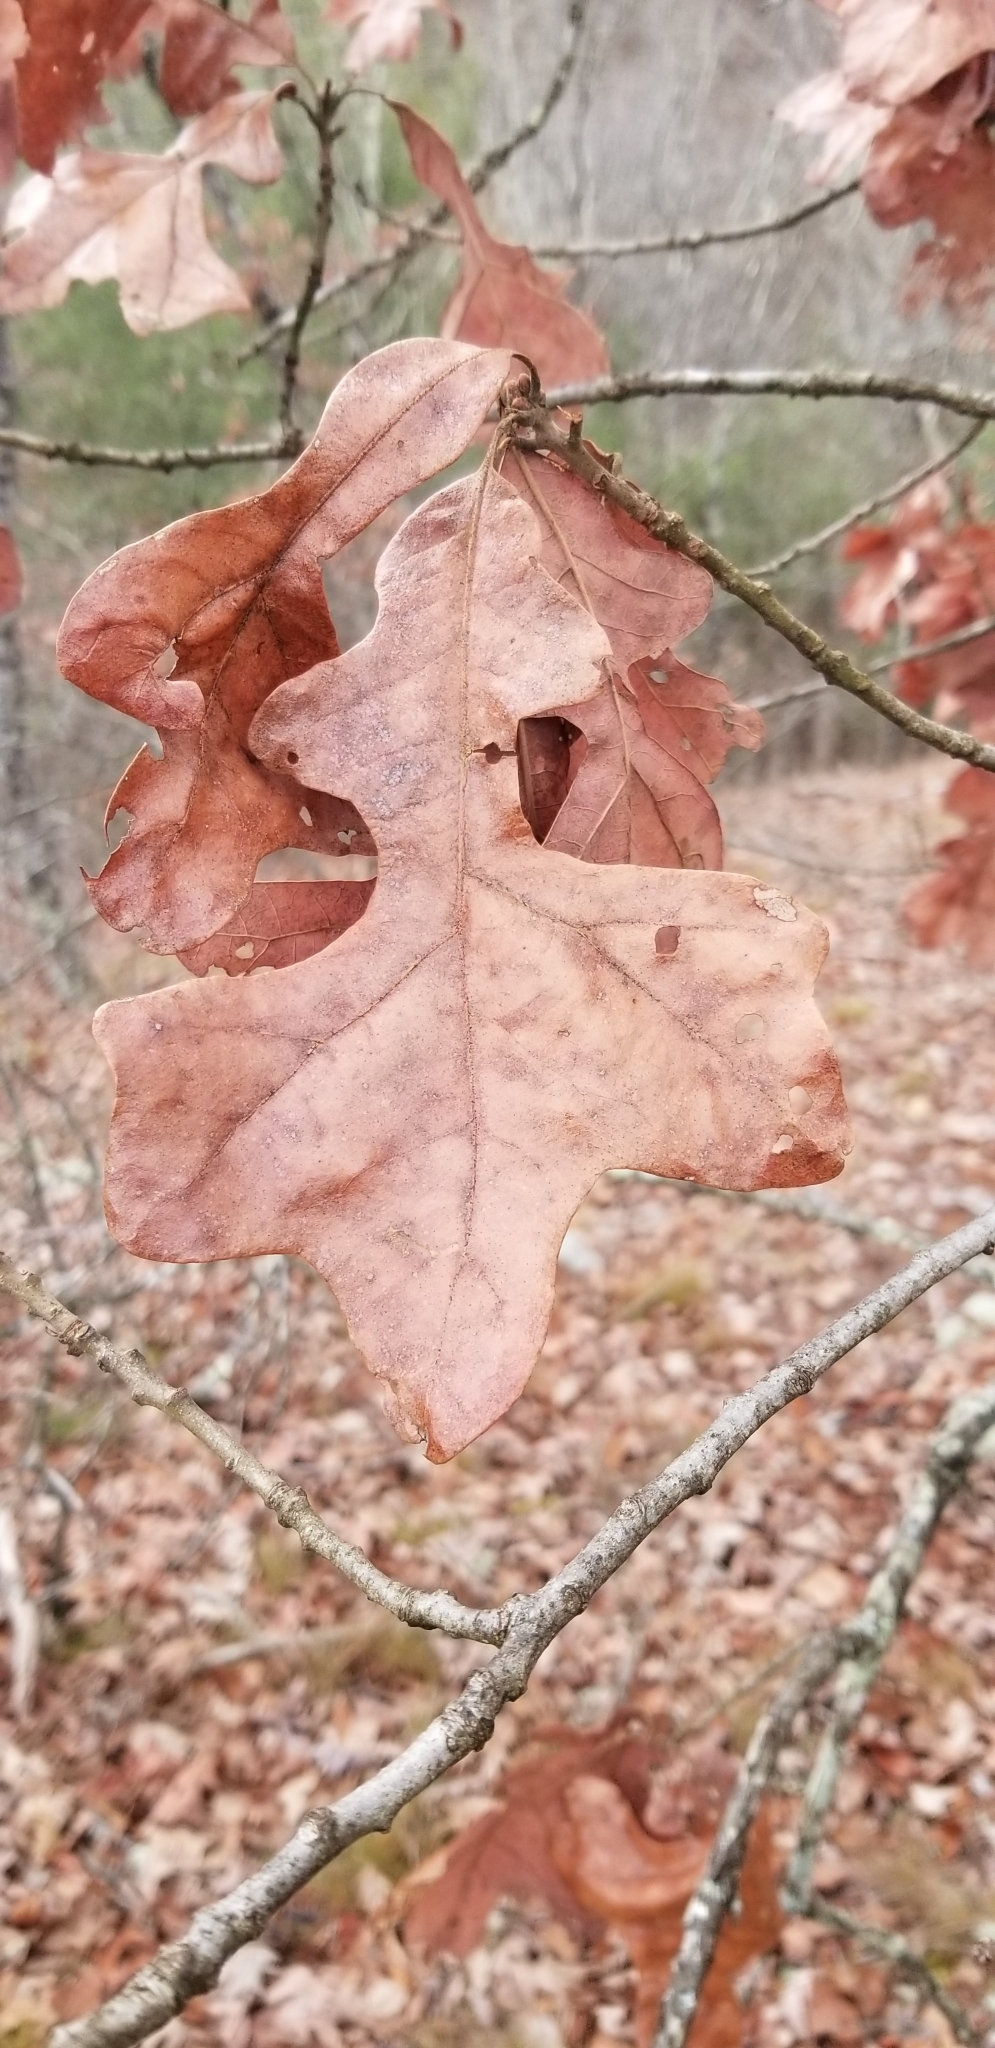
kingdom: Plantae
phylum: Tracheophyta
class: Magnoliopsida
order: Fagales
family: Fagaceae
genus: Quercus
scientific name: Quercus stellata
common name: Post oak
